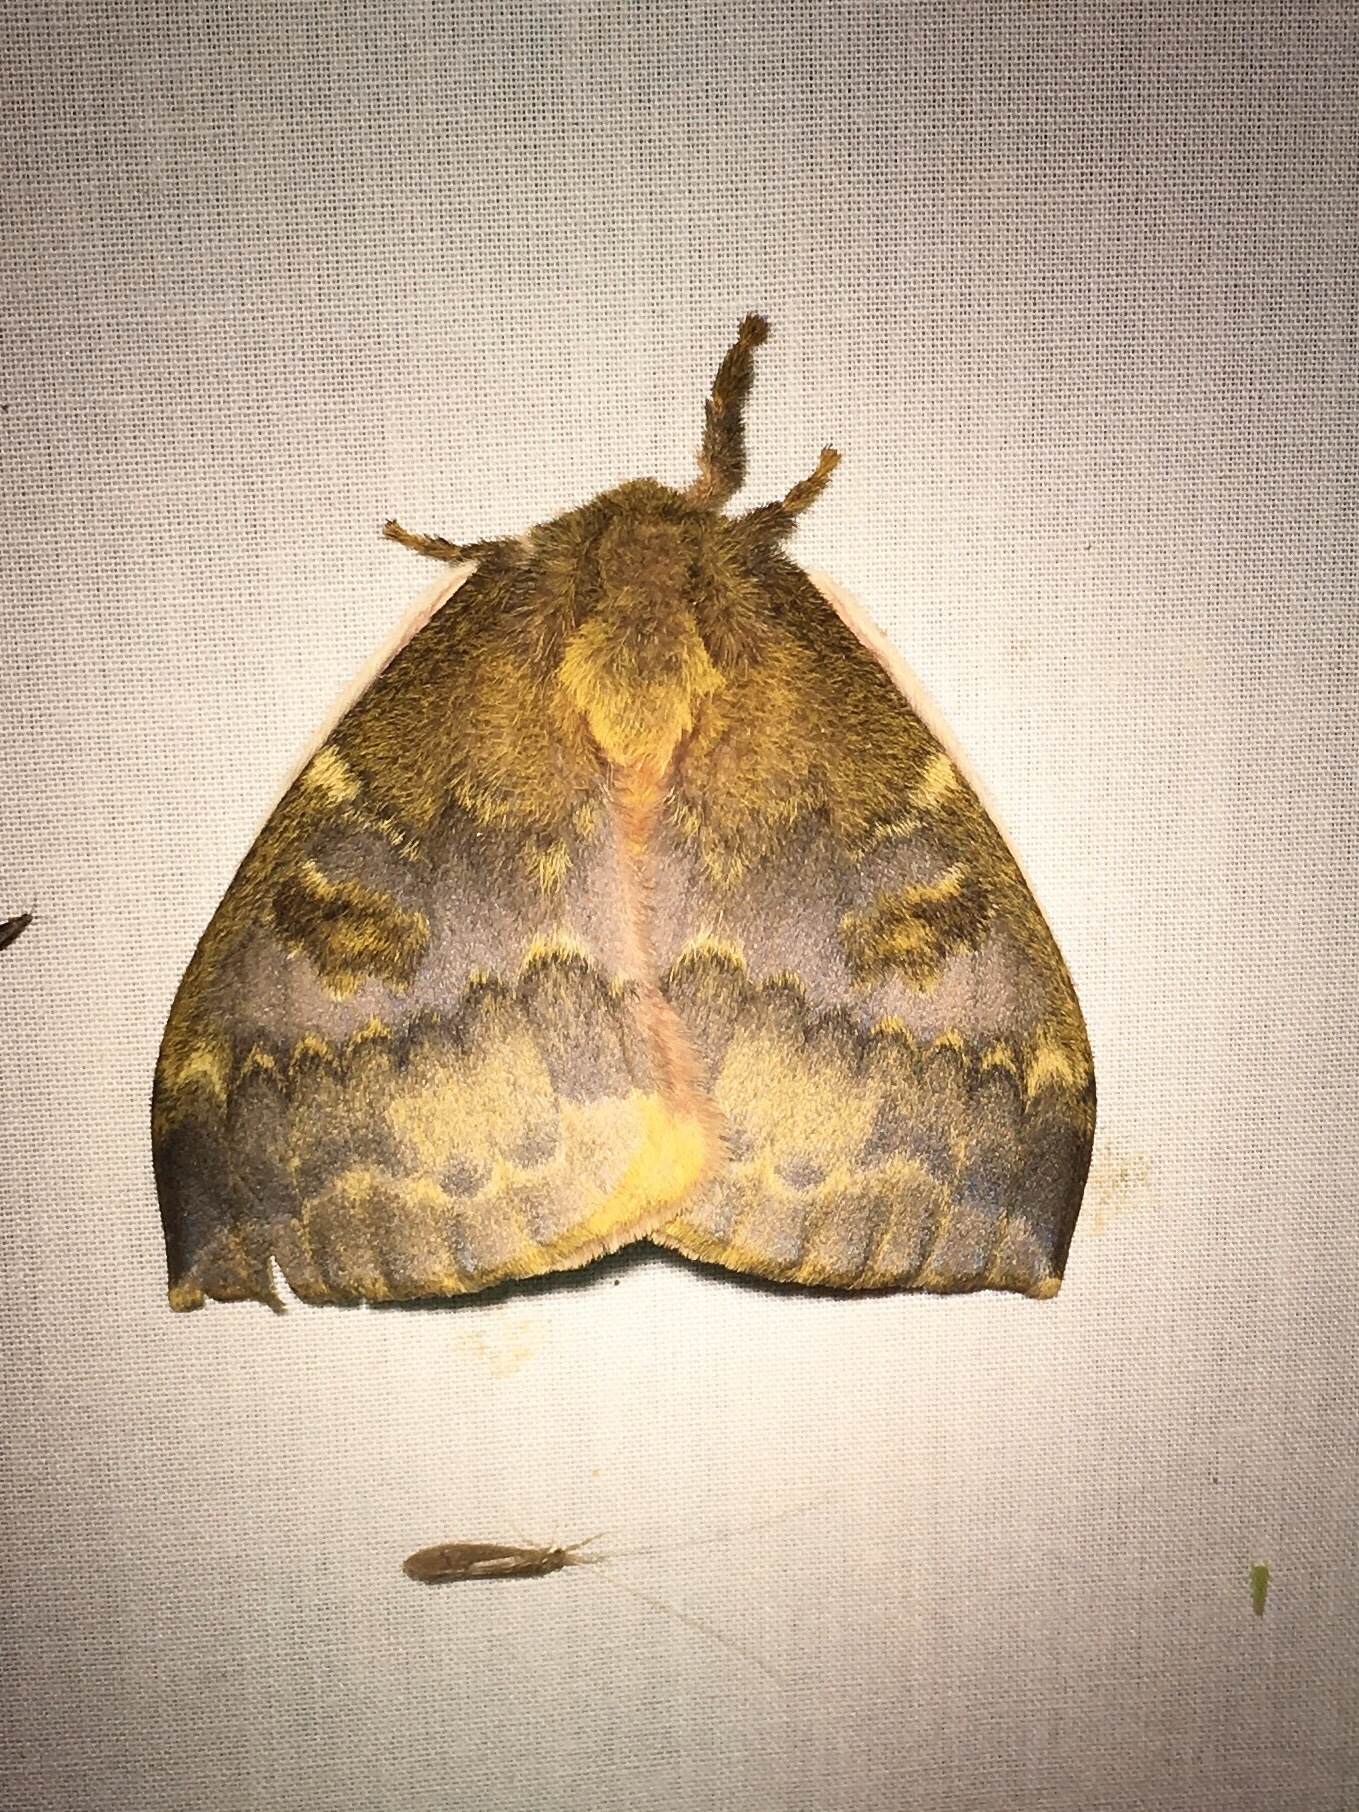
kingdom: Animalia
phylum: Arthropoda
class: Insecta
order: Lepidoptera
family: Saturniidae
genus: Automeris
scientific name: Automeris io
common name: Io moth
